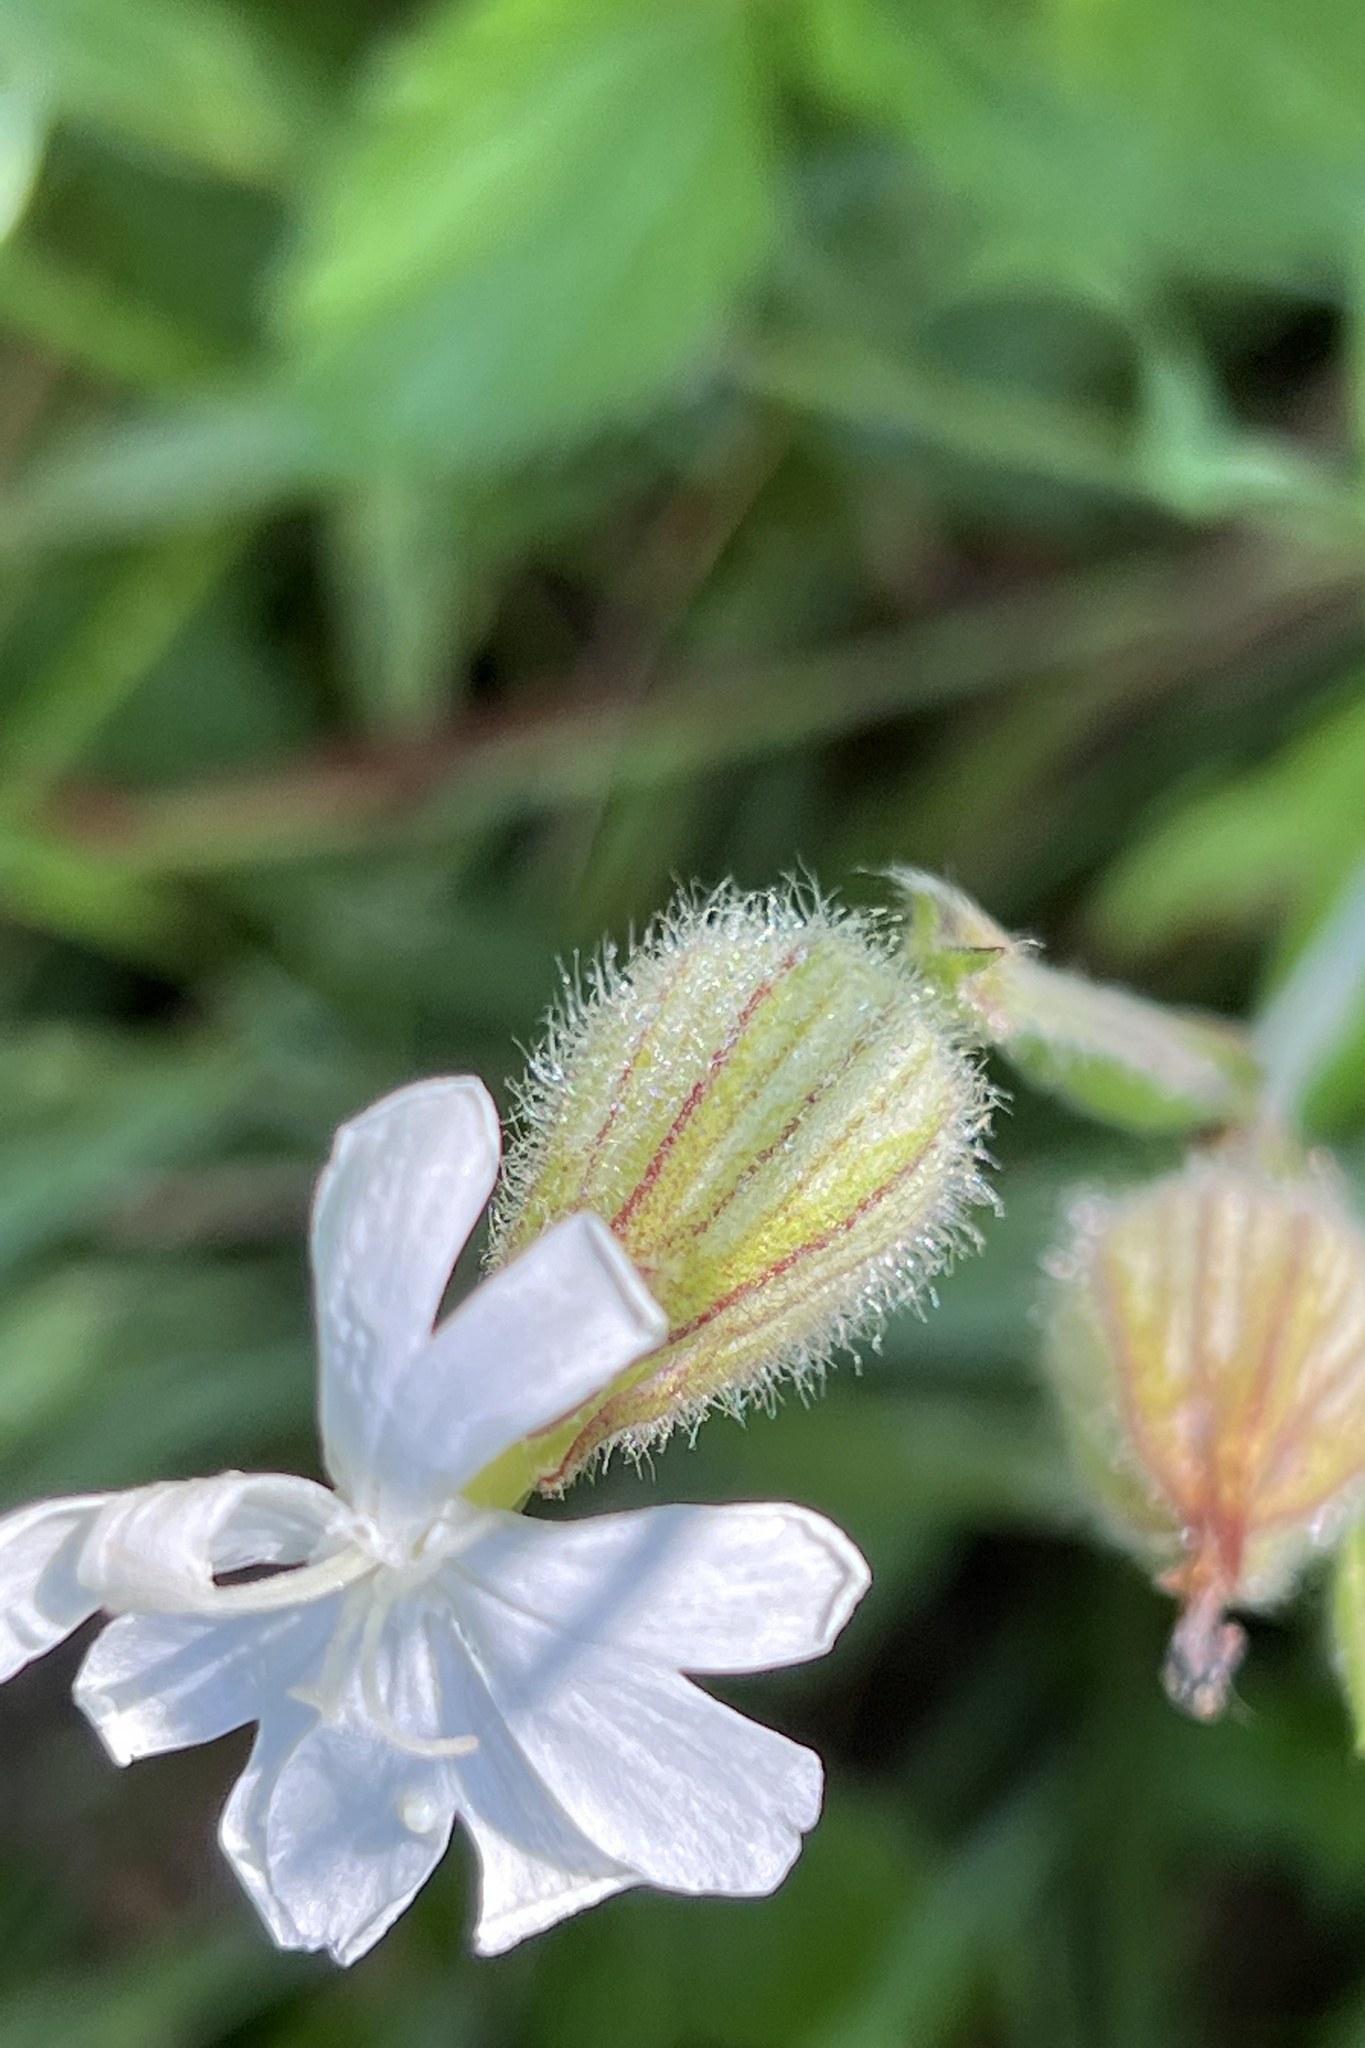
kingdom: Plantae
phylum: Tracheophyta
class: Magnoliopsida
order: Caryophyllales
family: Caryophyllaceae
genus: Silene
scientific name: Silene latifolia
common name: White campion
